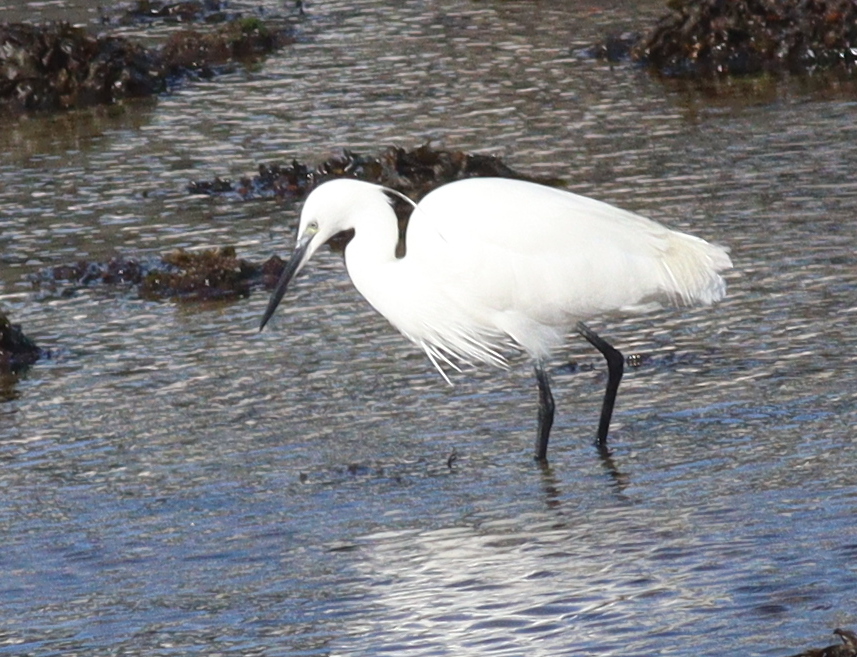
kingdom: Animalia
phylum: Chordata
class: Aves
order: Pelecaniformes
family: Ardeidae
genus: Egretta
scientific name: Egretta garzetta
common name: Little egret
